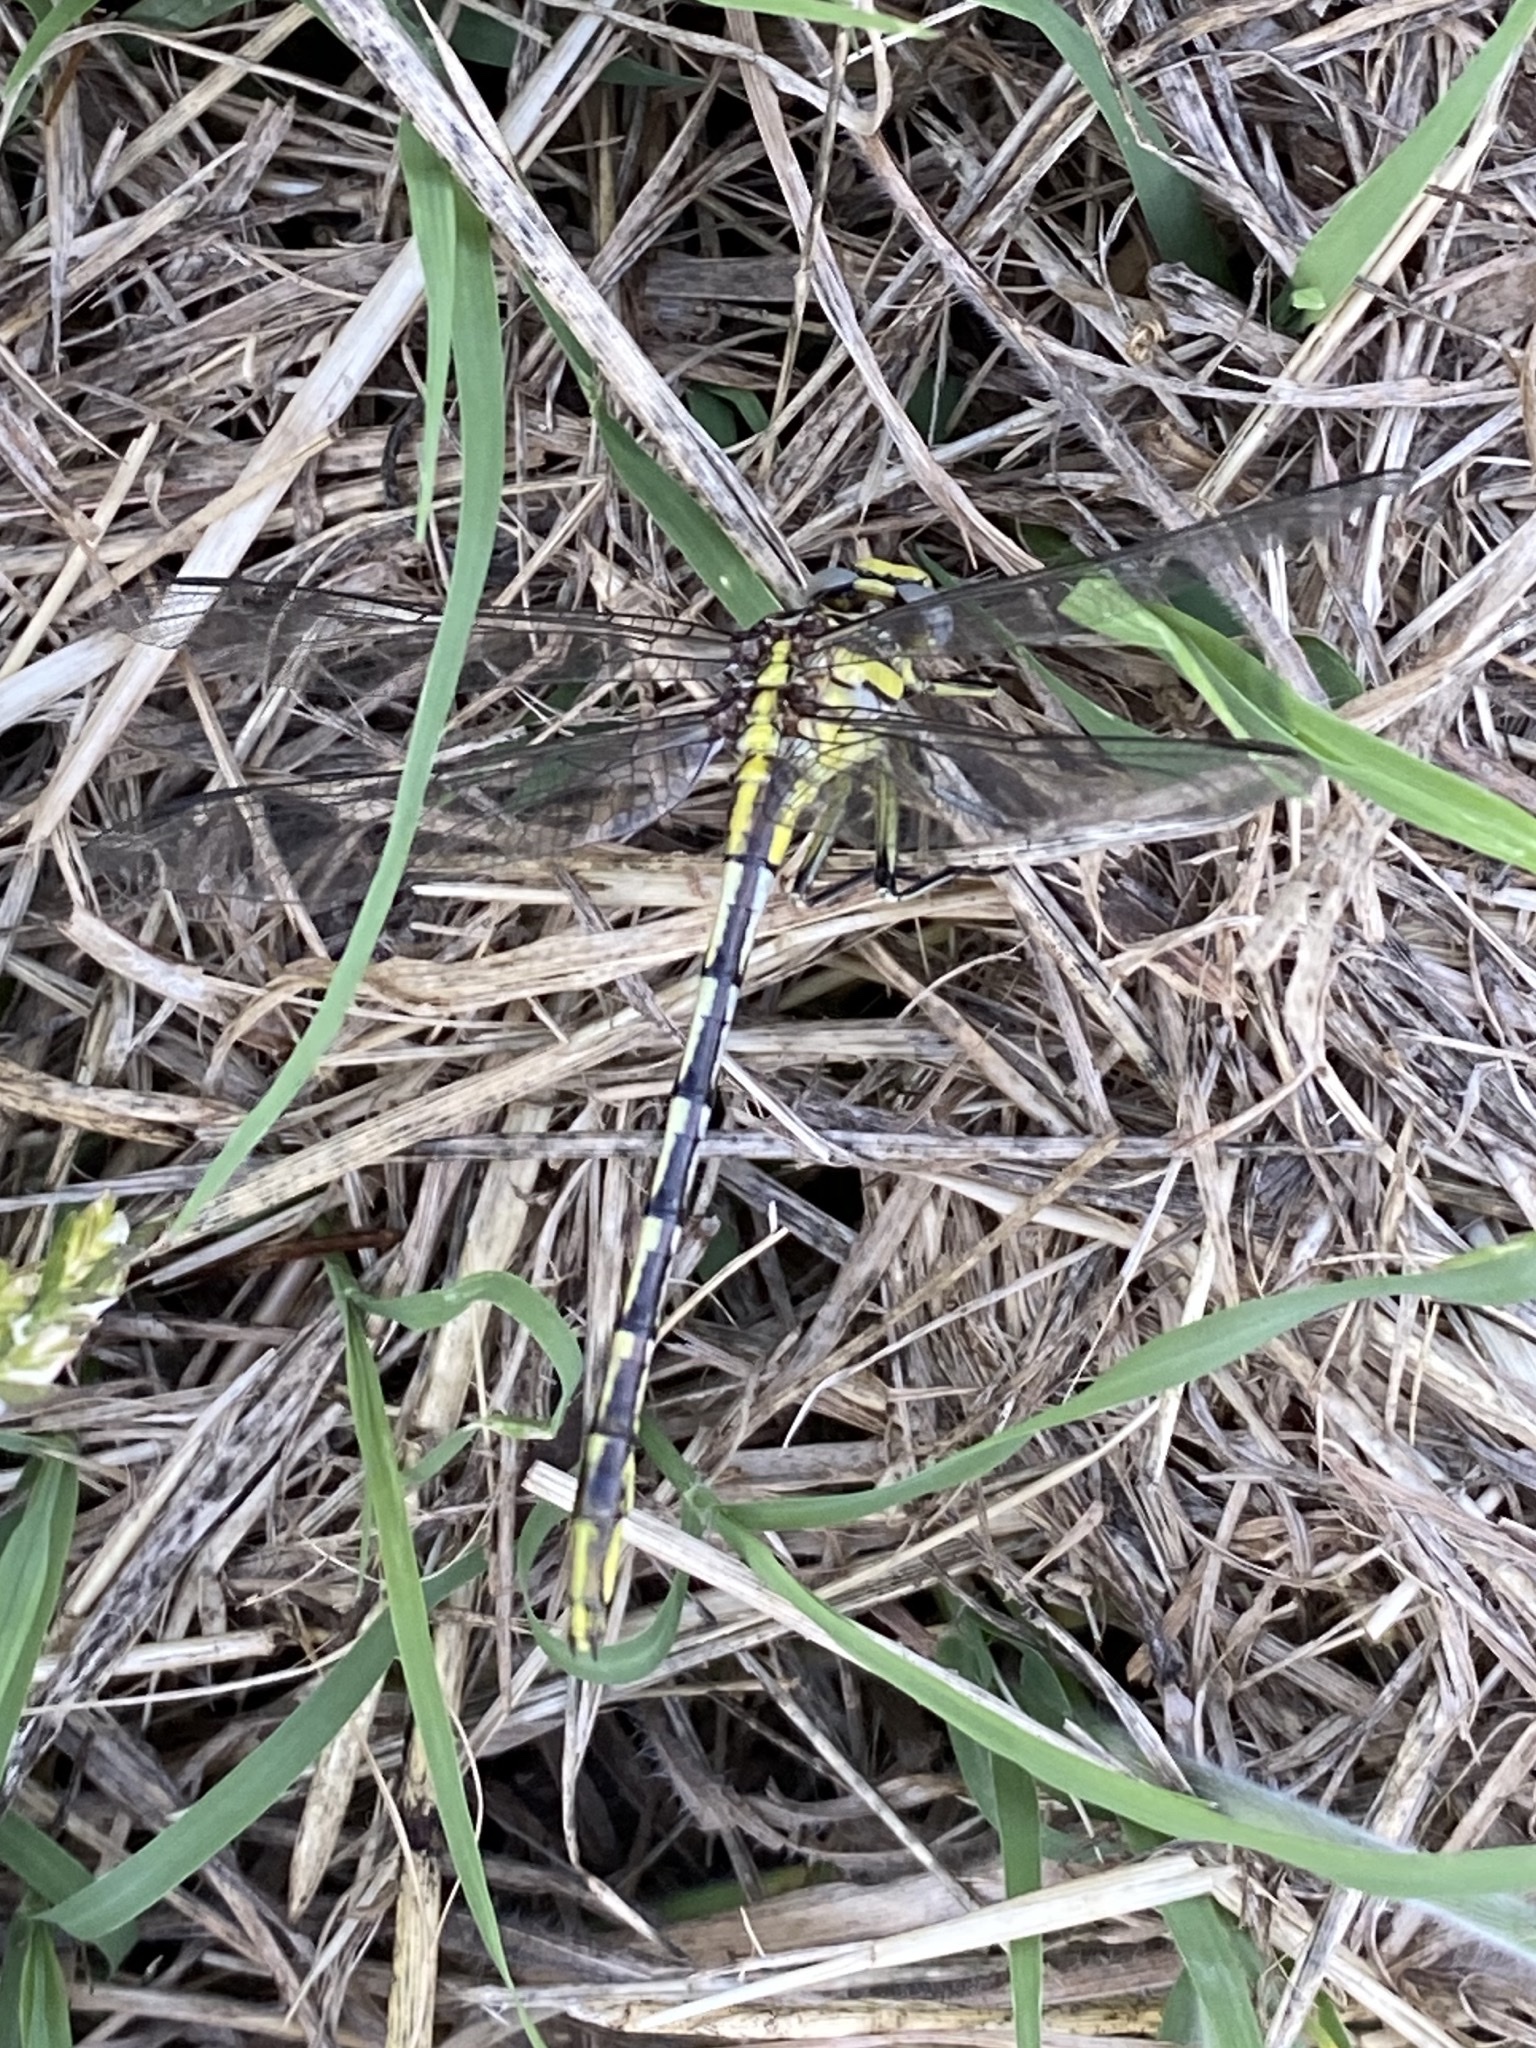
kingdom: Animalia
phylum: Arthropoda
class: Insecta
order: Odonata
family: Gomphidae
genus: Phanogomphus
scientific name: Phanogomphus militaris
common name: Sulphur-tipped clubtail
